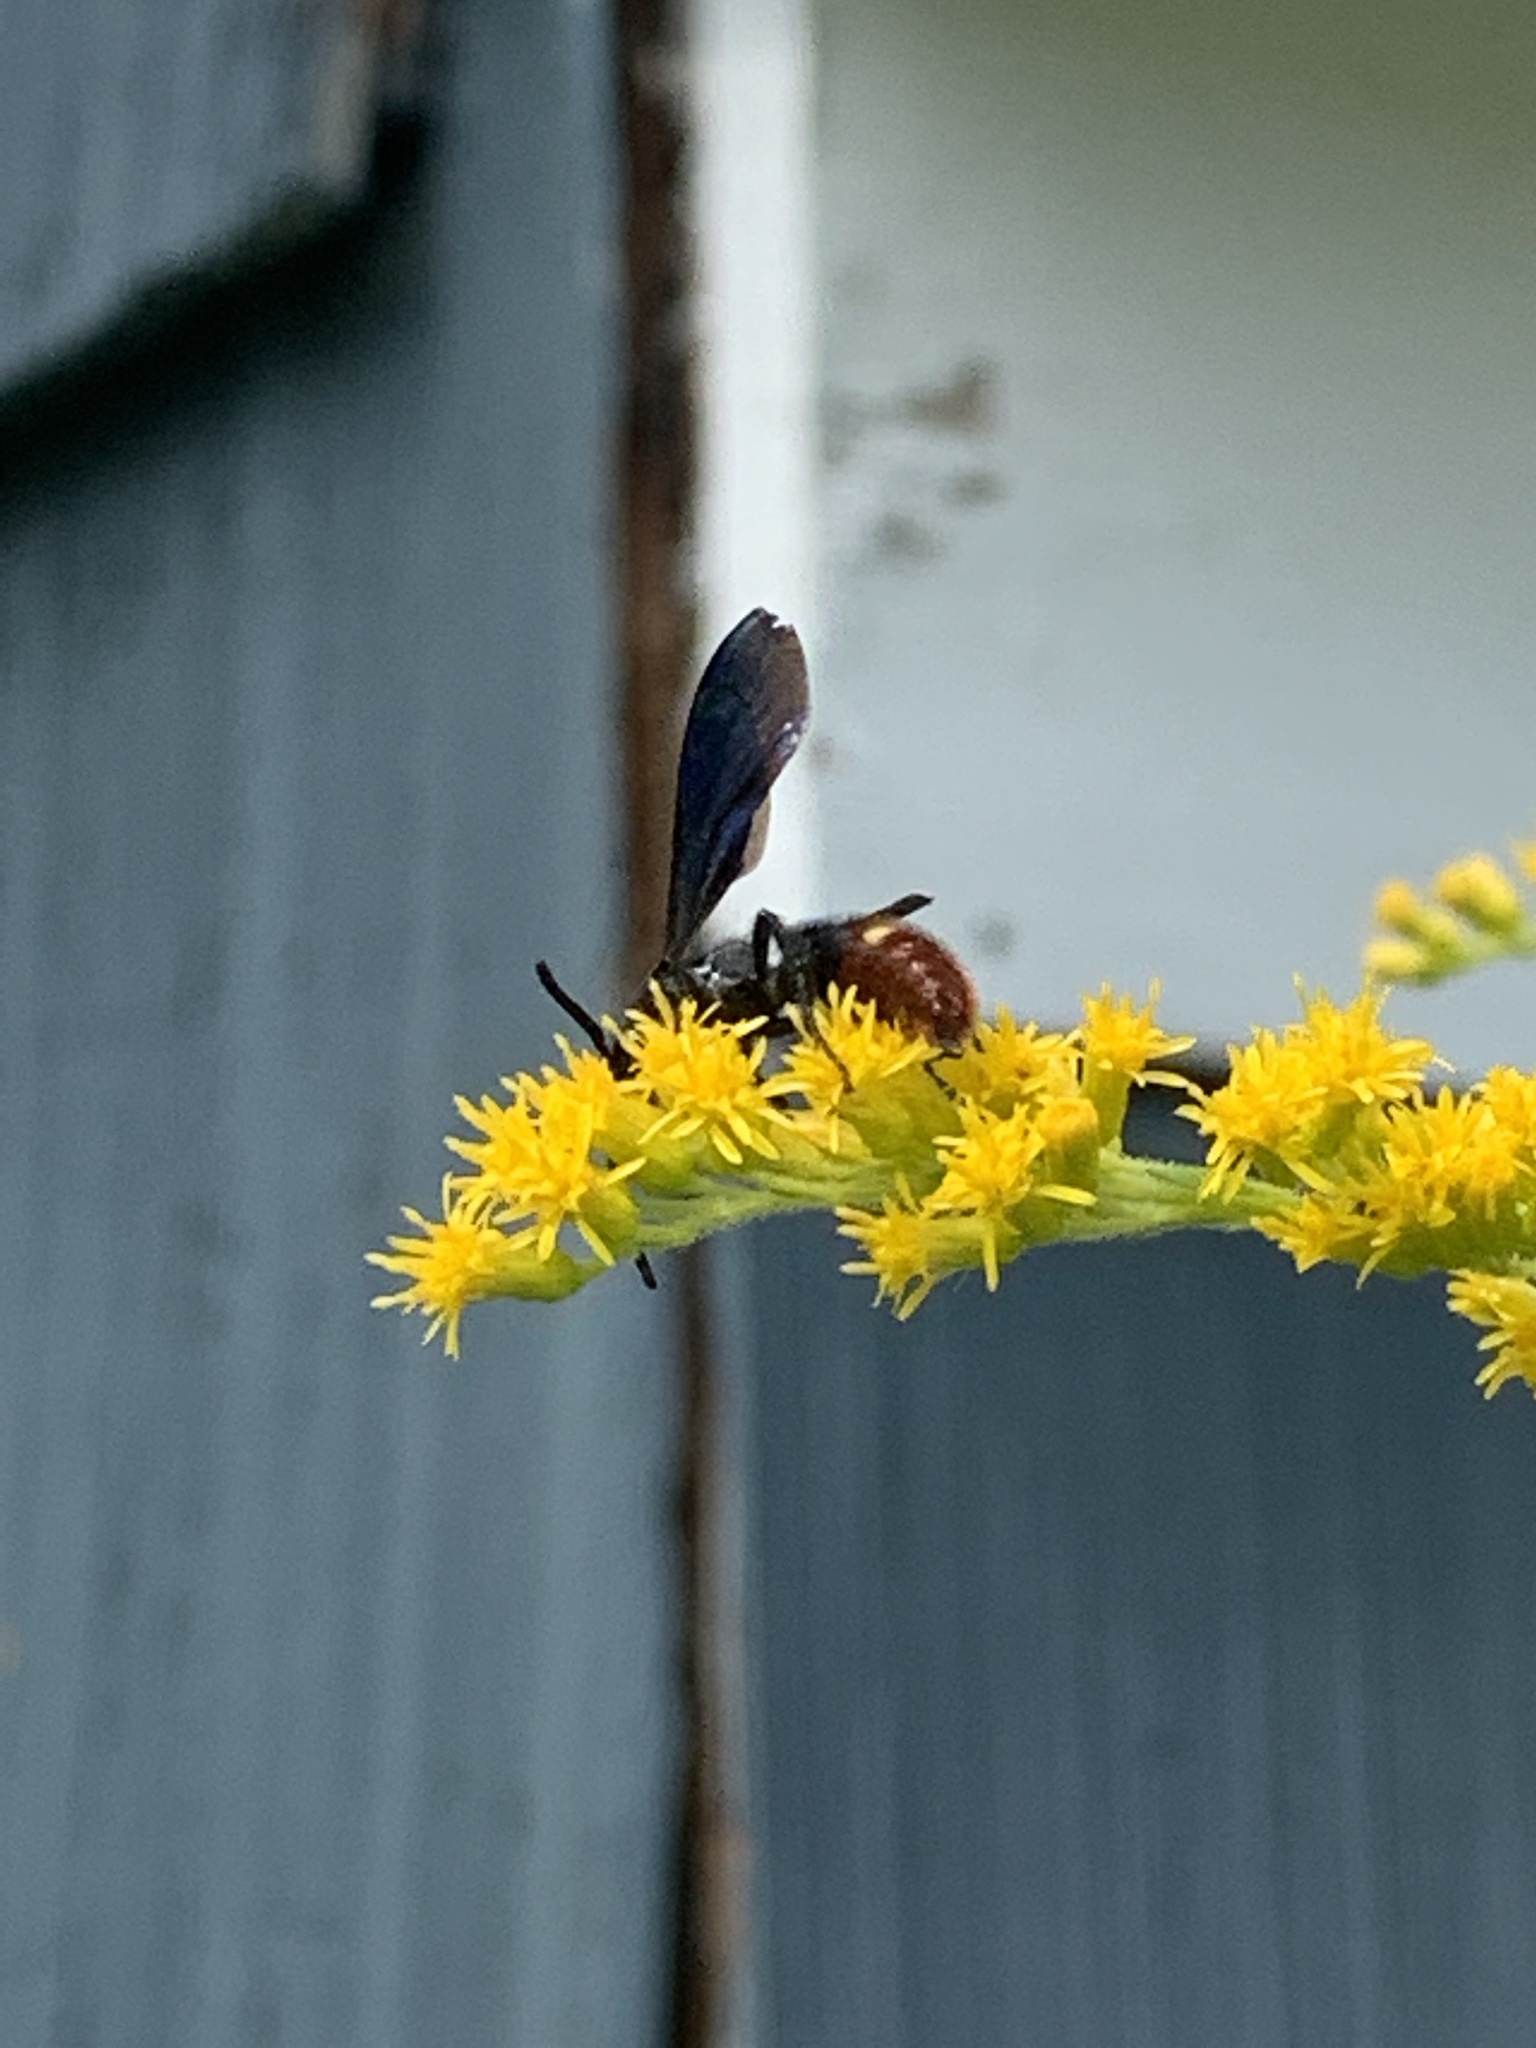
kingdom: Animalia
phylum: Arthropoda
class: Insecta
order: Hymenoptera
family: Scoliidae
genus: Scolia
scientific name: Scolia dubia
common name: Blue-winged scoliid wasp
